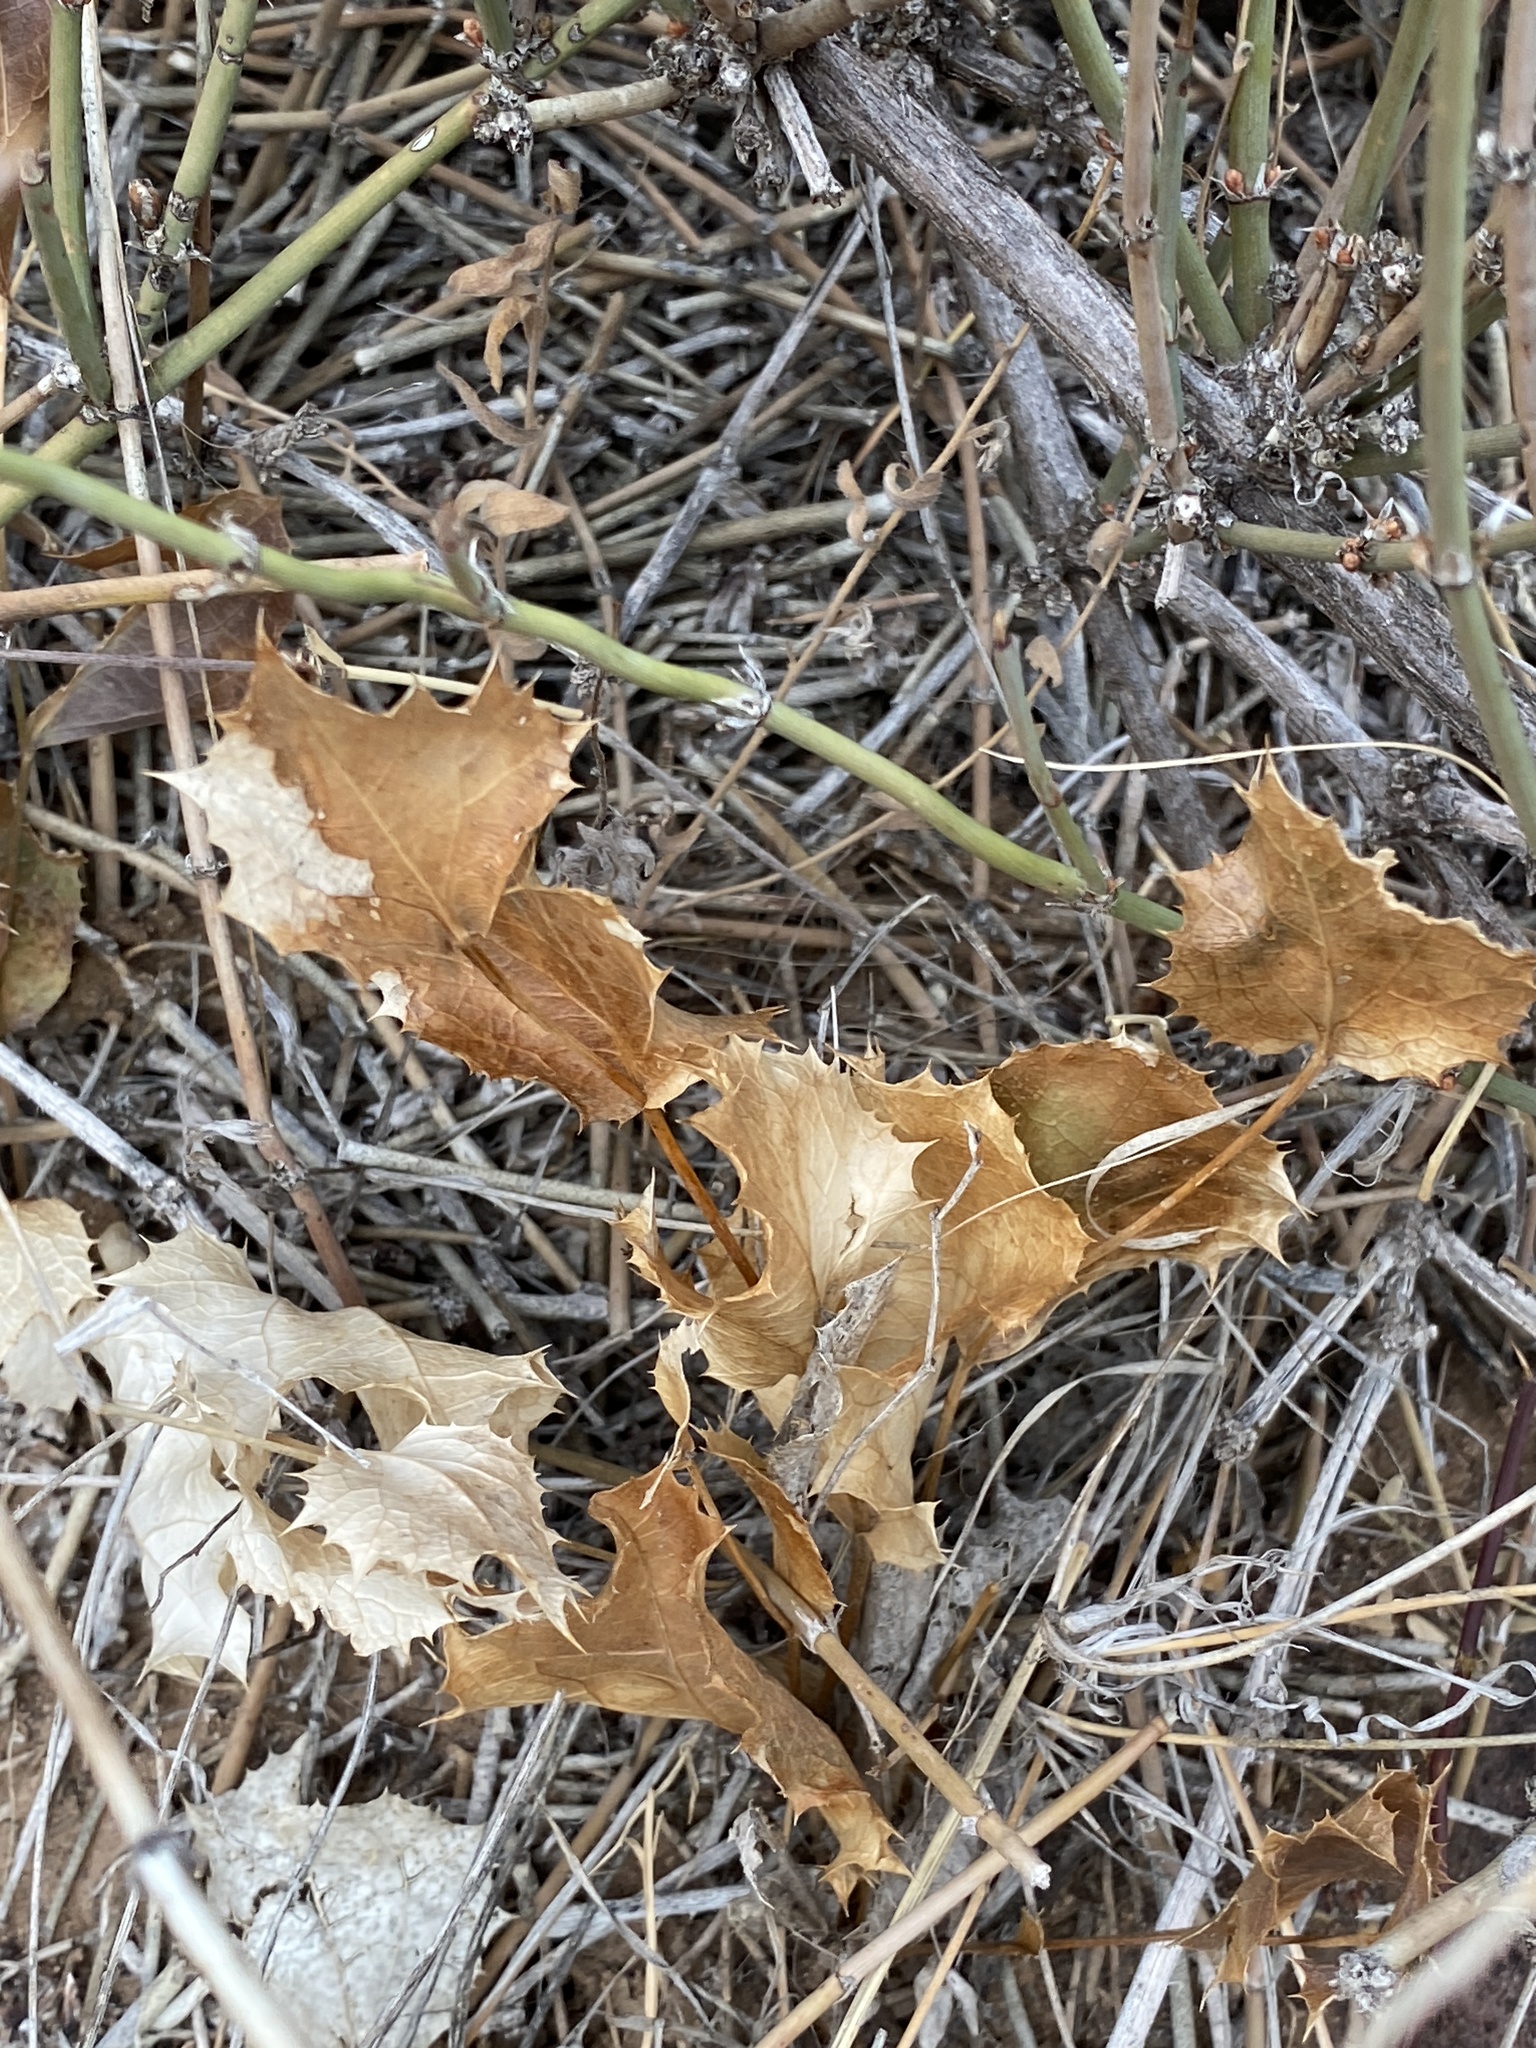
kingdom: Plantae
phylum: Tracheophyta
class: Magnoliopsida
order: Asterales
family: Asteraceae
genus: Acourtia
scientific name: Acourtia nana
